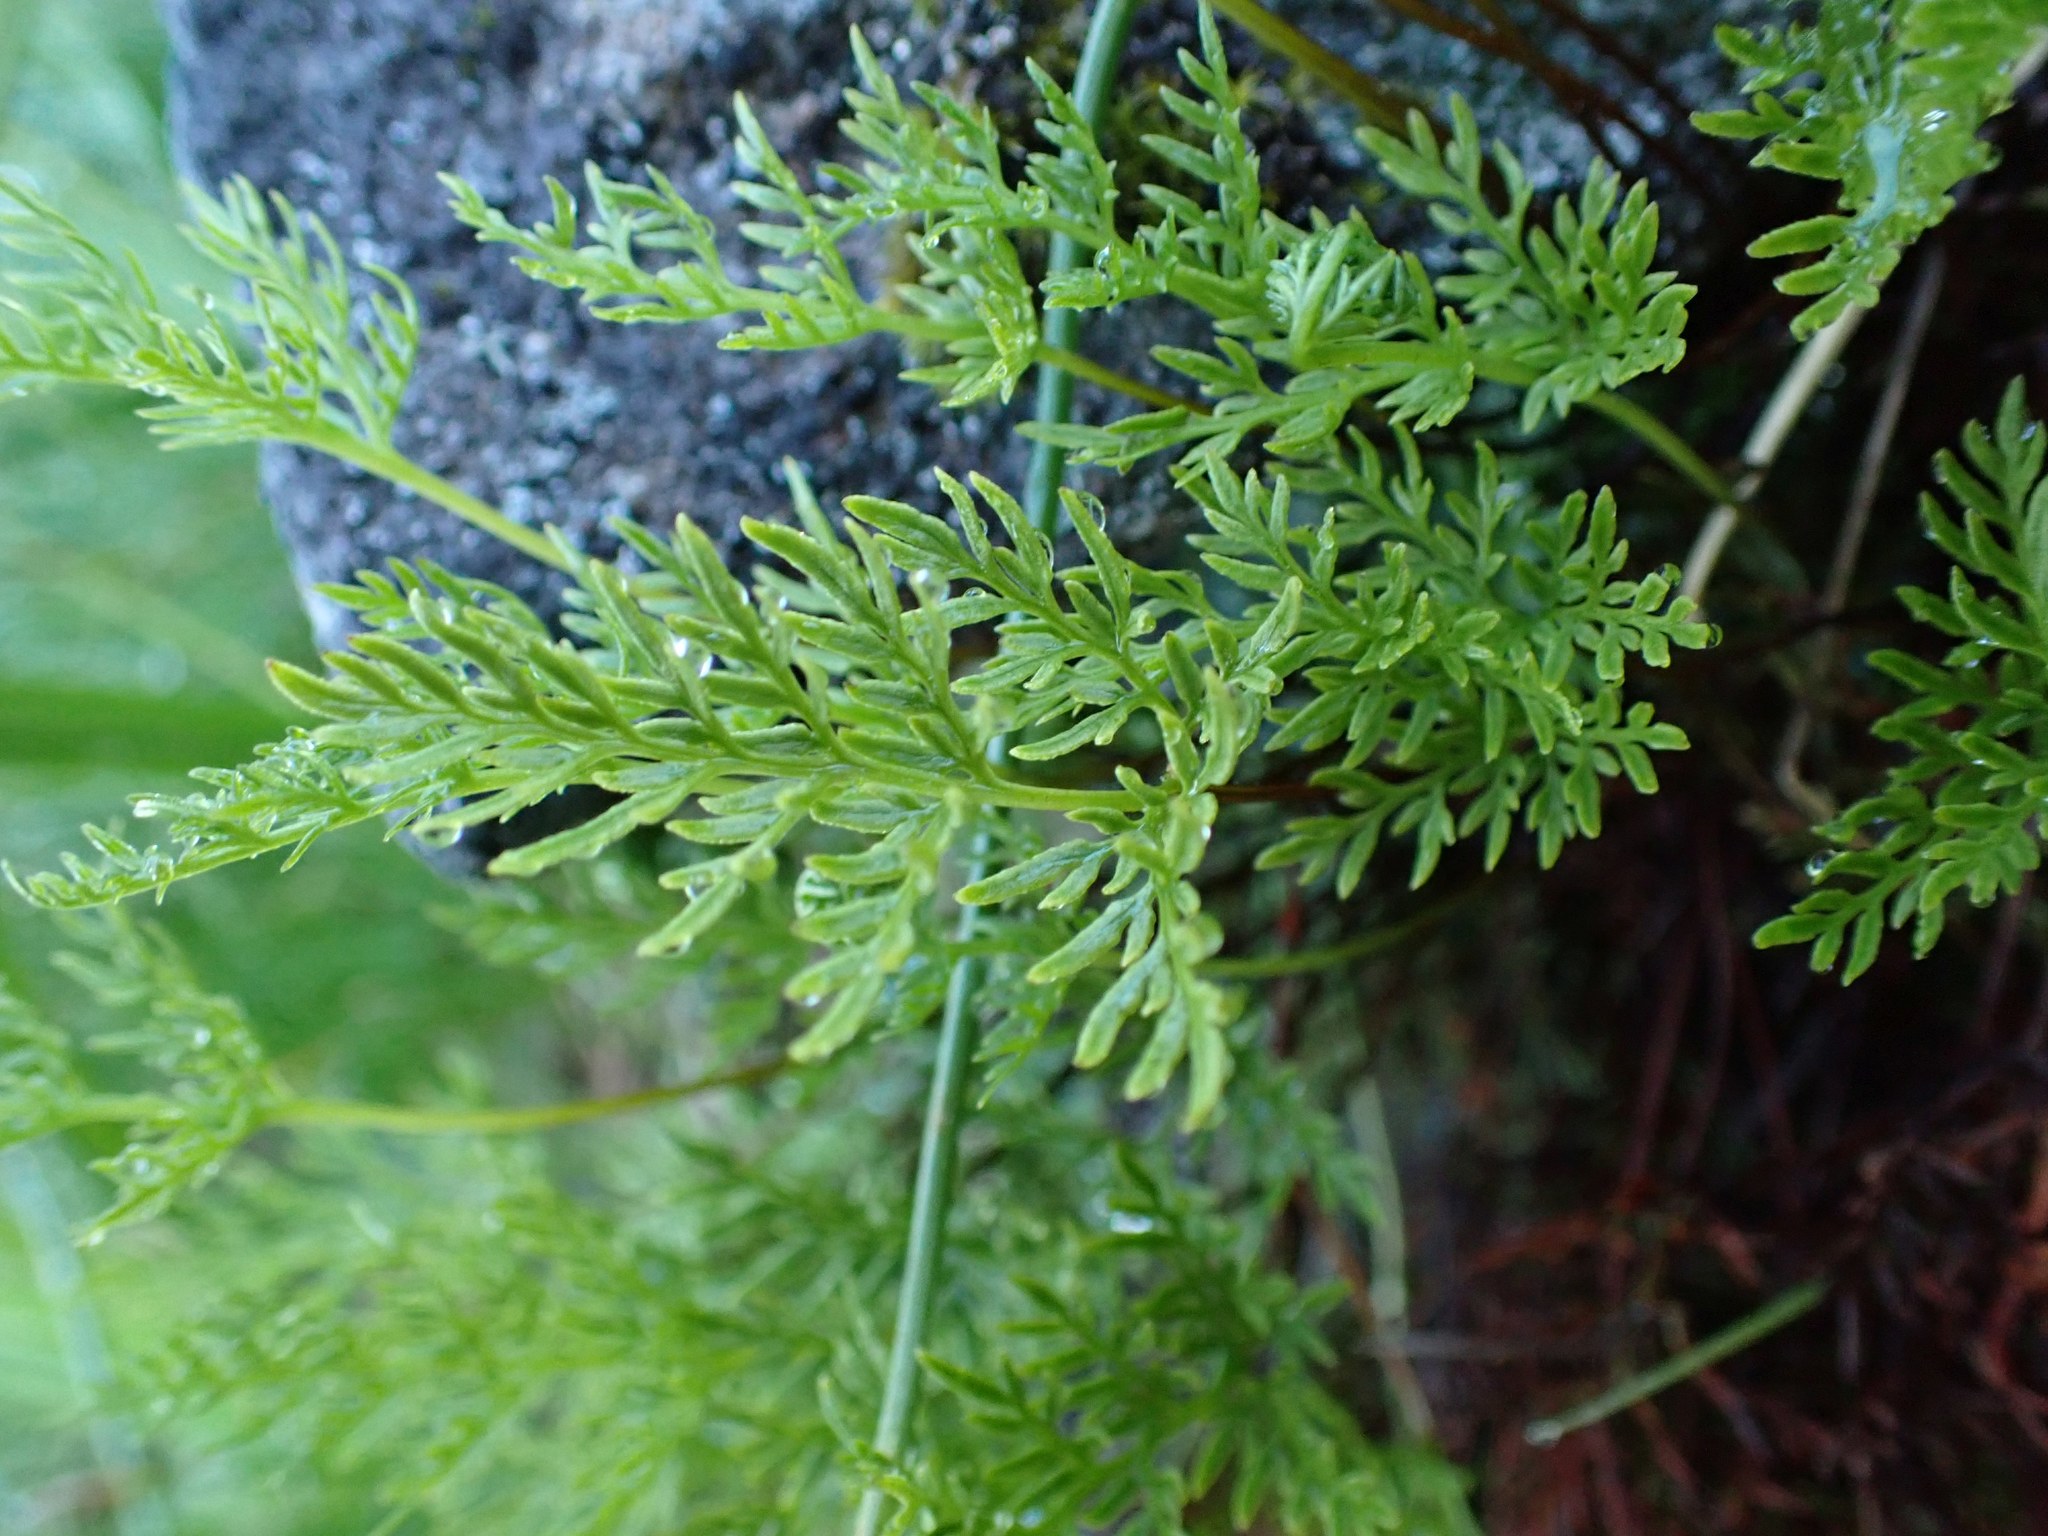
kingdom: Plantae
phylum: Tracheophyta
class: Polypodiopsida
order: Polypodiales
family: Pteridaceae
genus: Aspidotis
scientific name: Aspidotis densa
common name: Indian's dream
